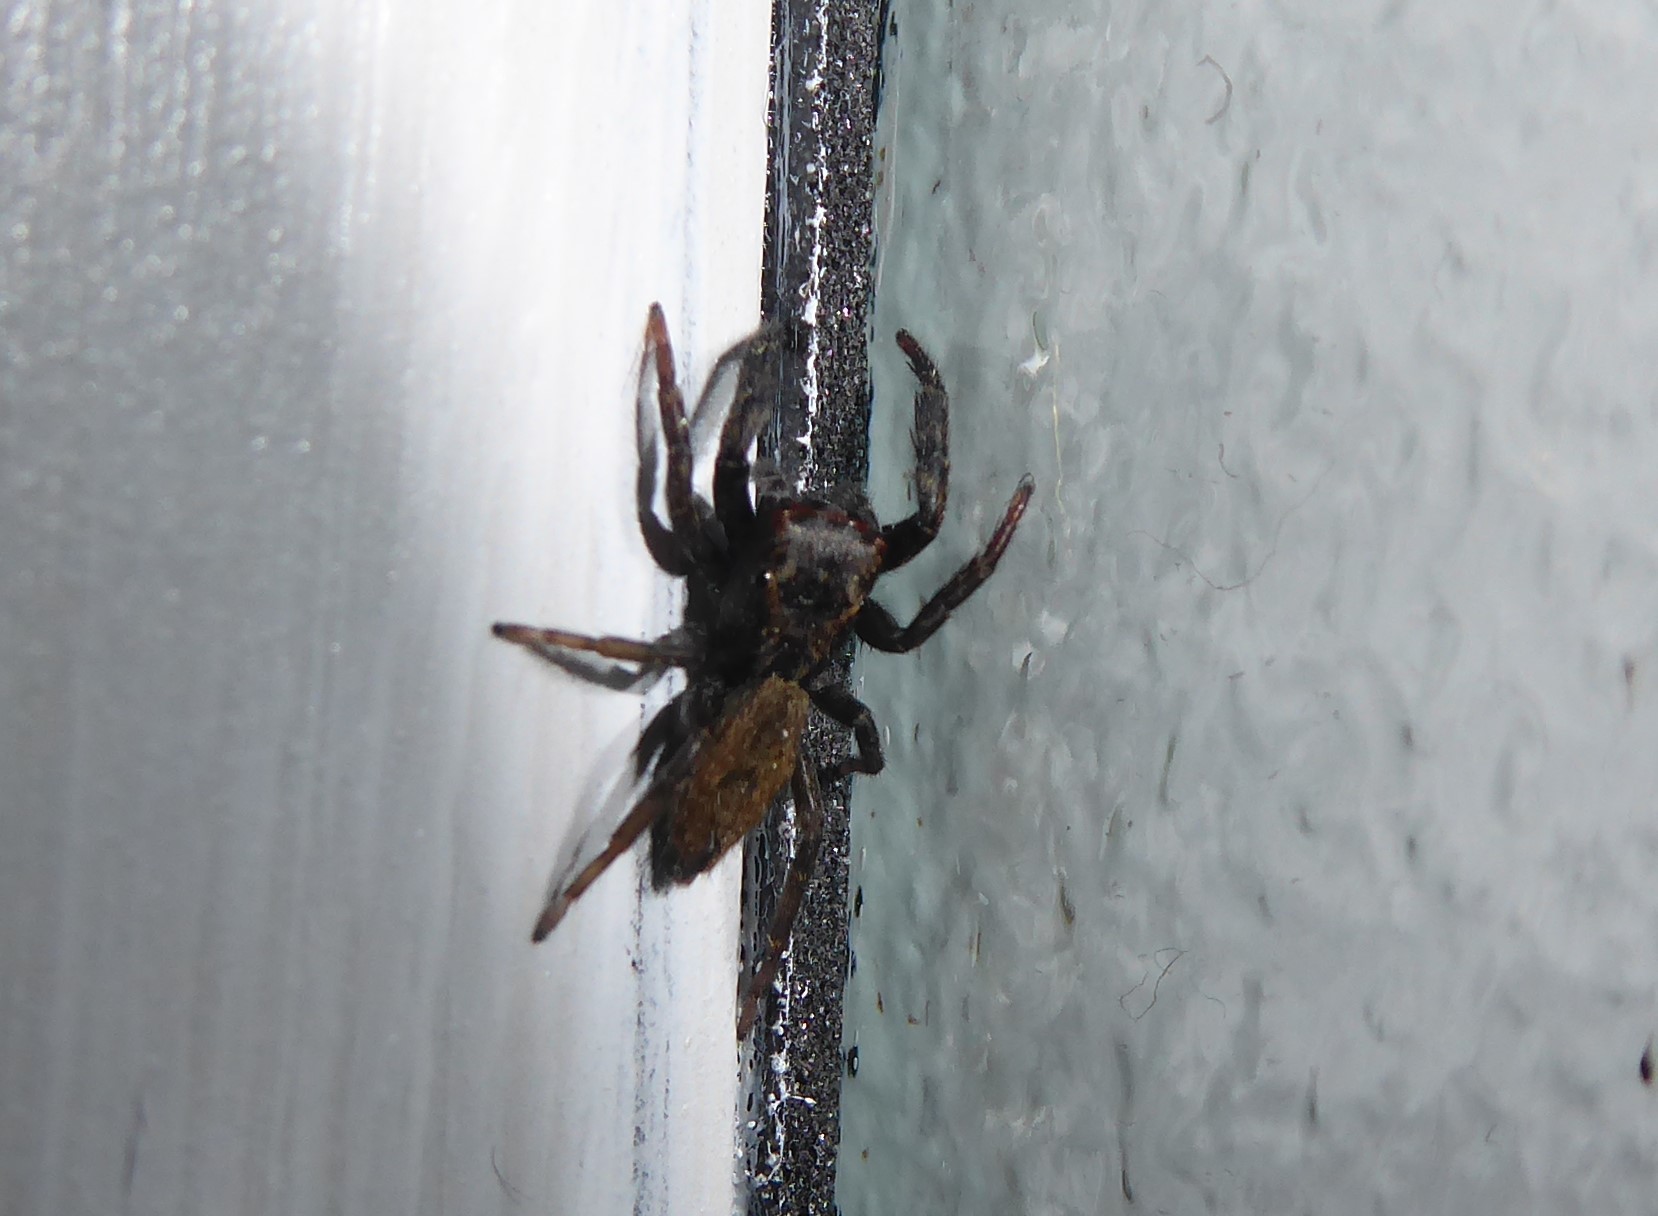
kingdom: Animalia
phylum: Arthropoda
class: Arachnida
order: Araneae
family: Salticidae
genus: Trite
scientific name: Trite auricoma
